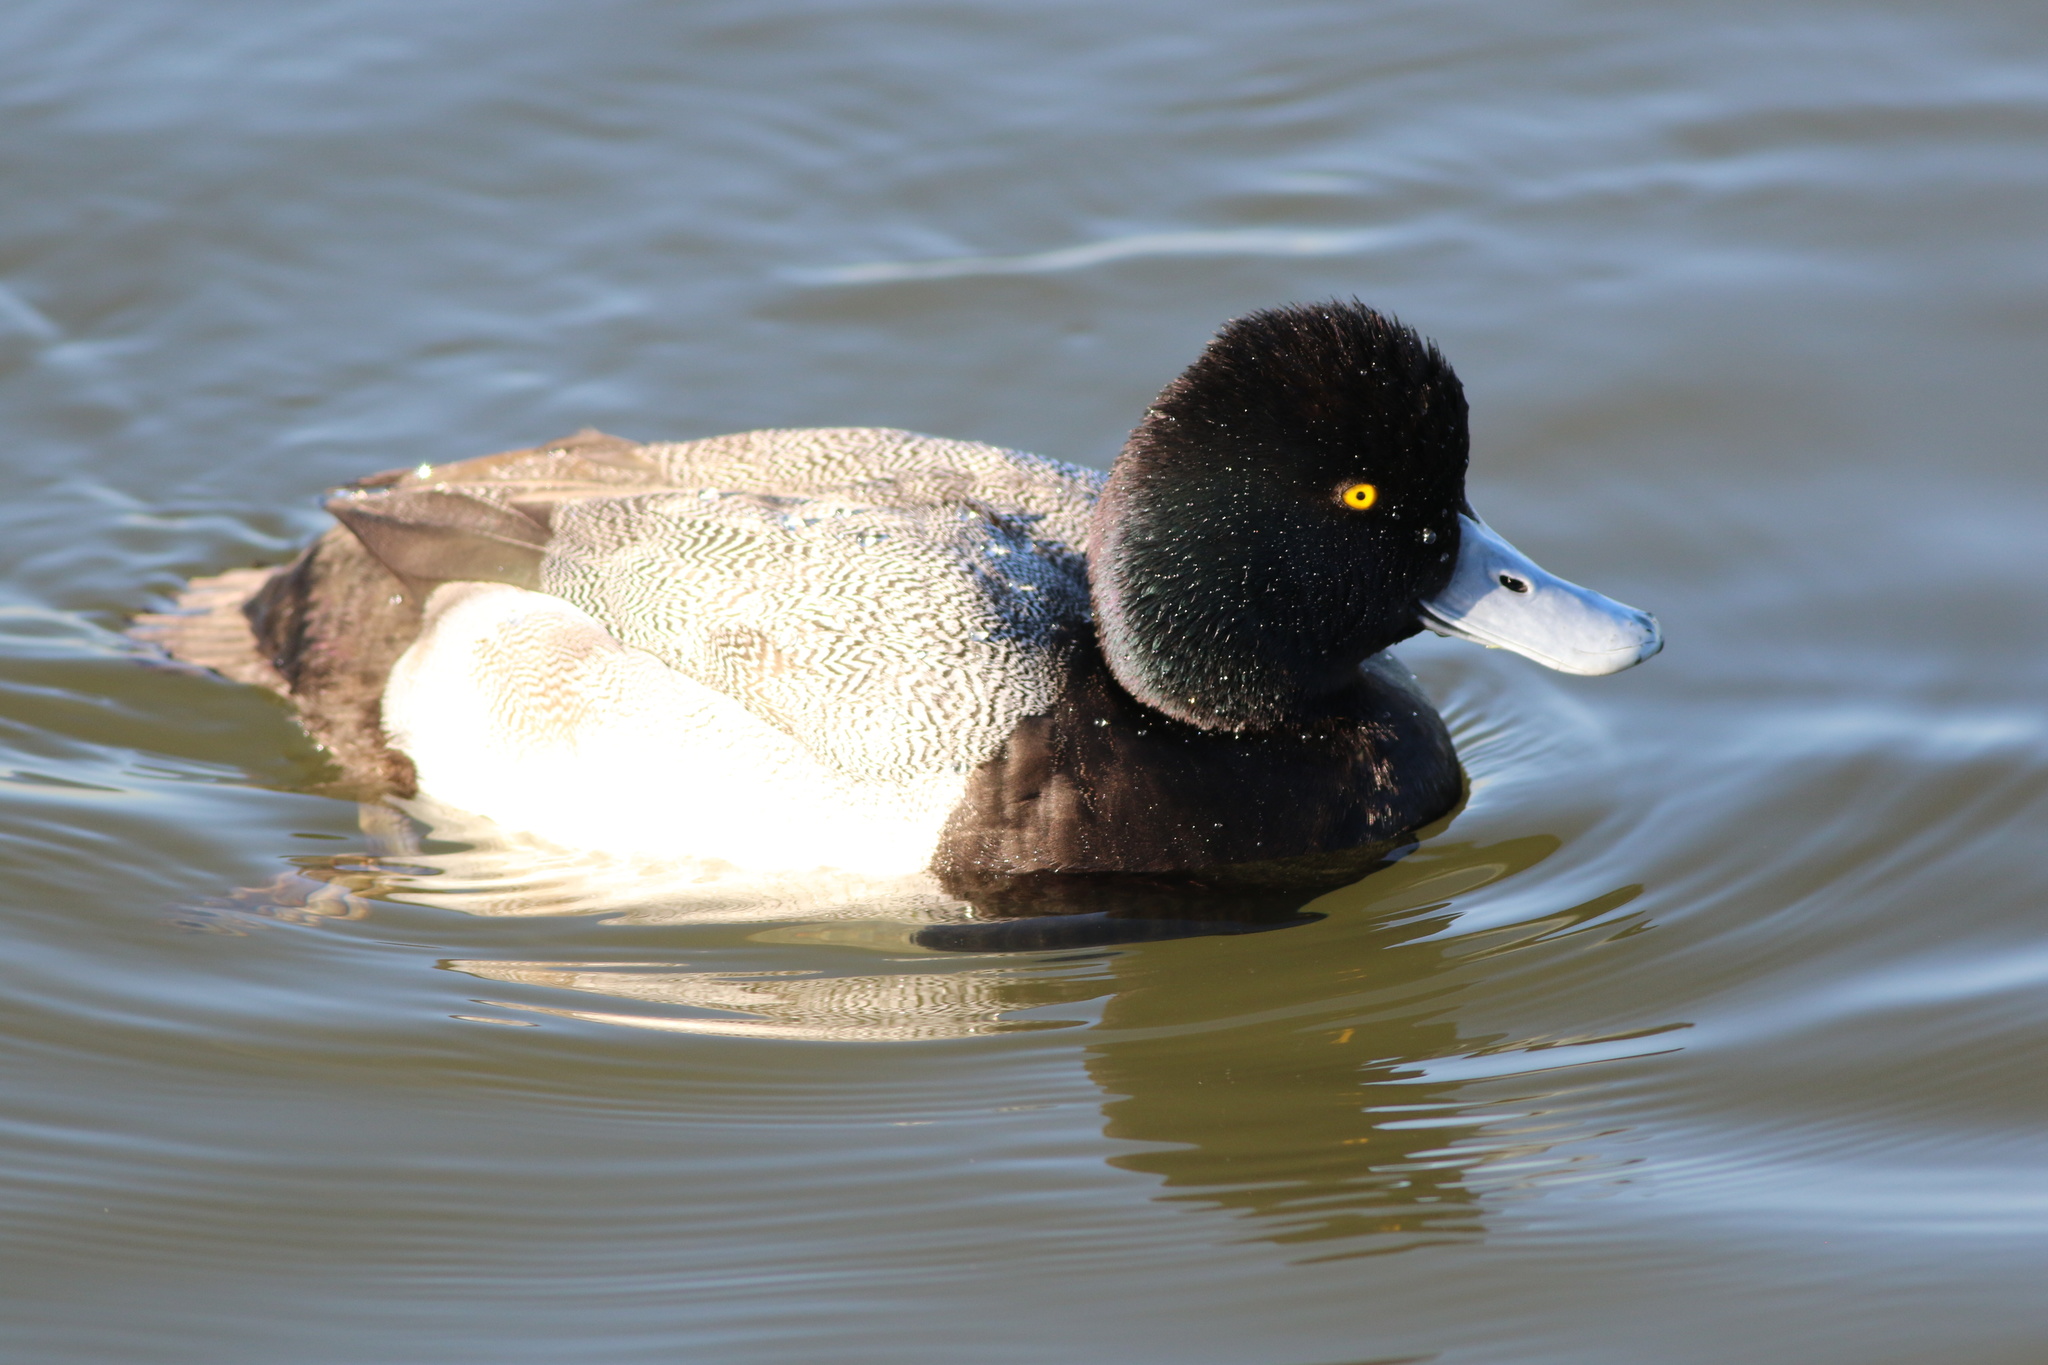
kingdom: Animalia
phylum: Chordata
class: Aves
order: Anseriformes
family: Anatidae
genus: Aythya
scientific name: Aythya affinis
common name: Lesser scaup
